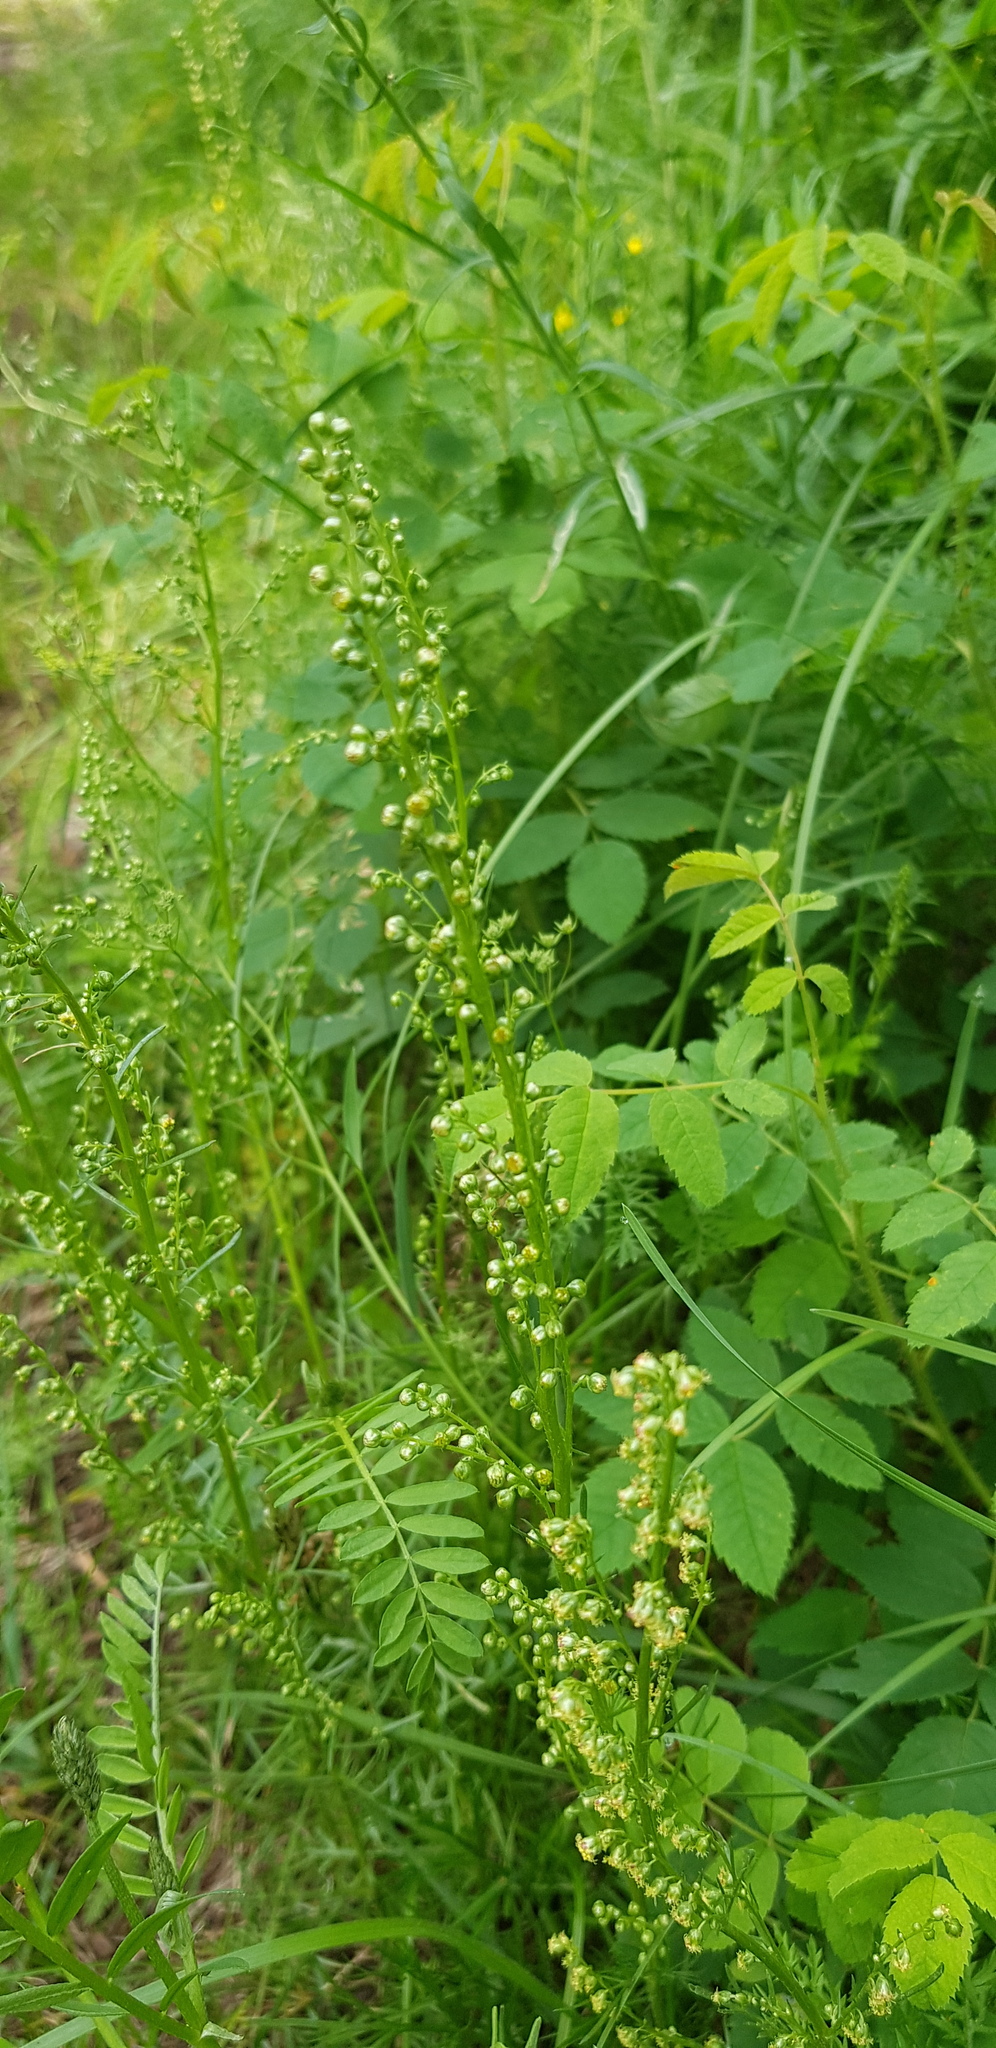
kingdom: Plantae
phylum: Tracheophyta
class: Magnoliopsida
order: Asterales
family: Asteraceae
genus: Artemisia
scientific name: Artemisia gmelinii
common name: Gmelin's wormwood
